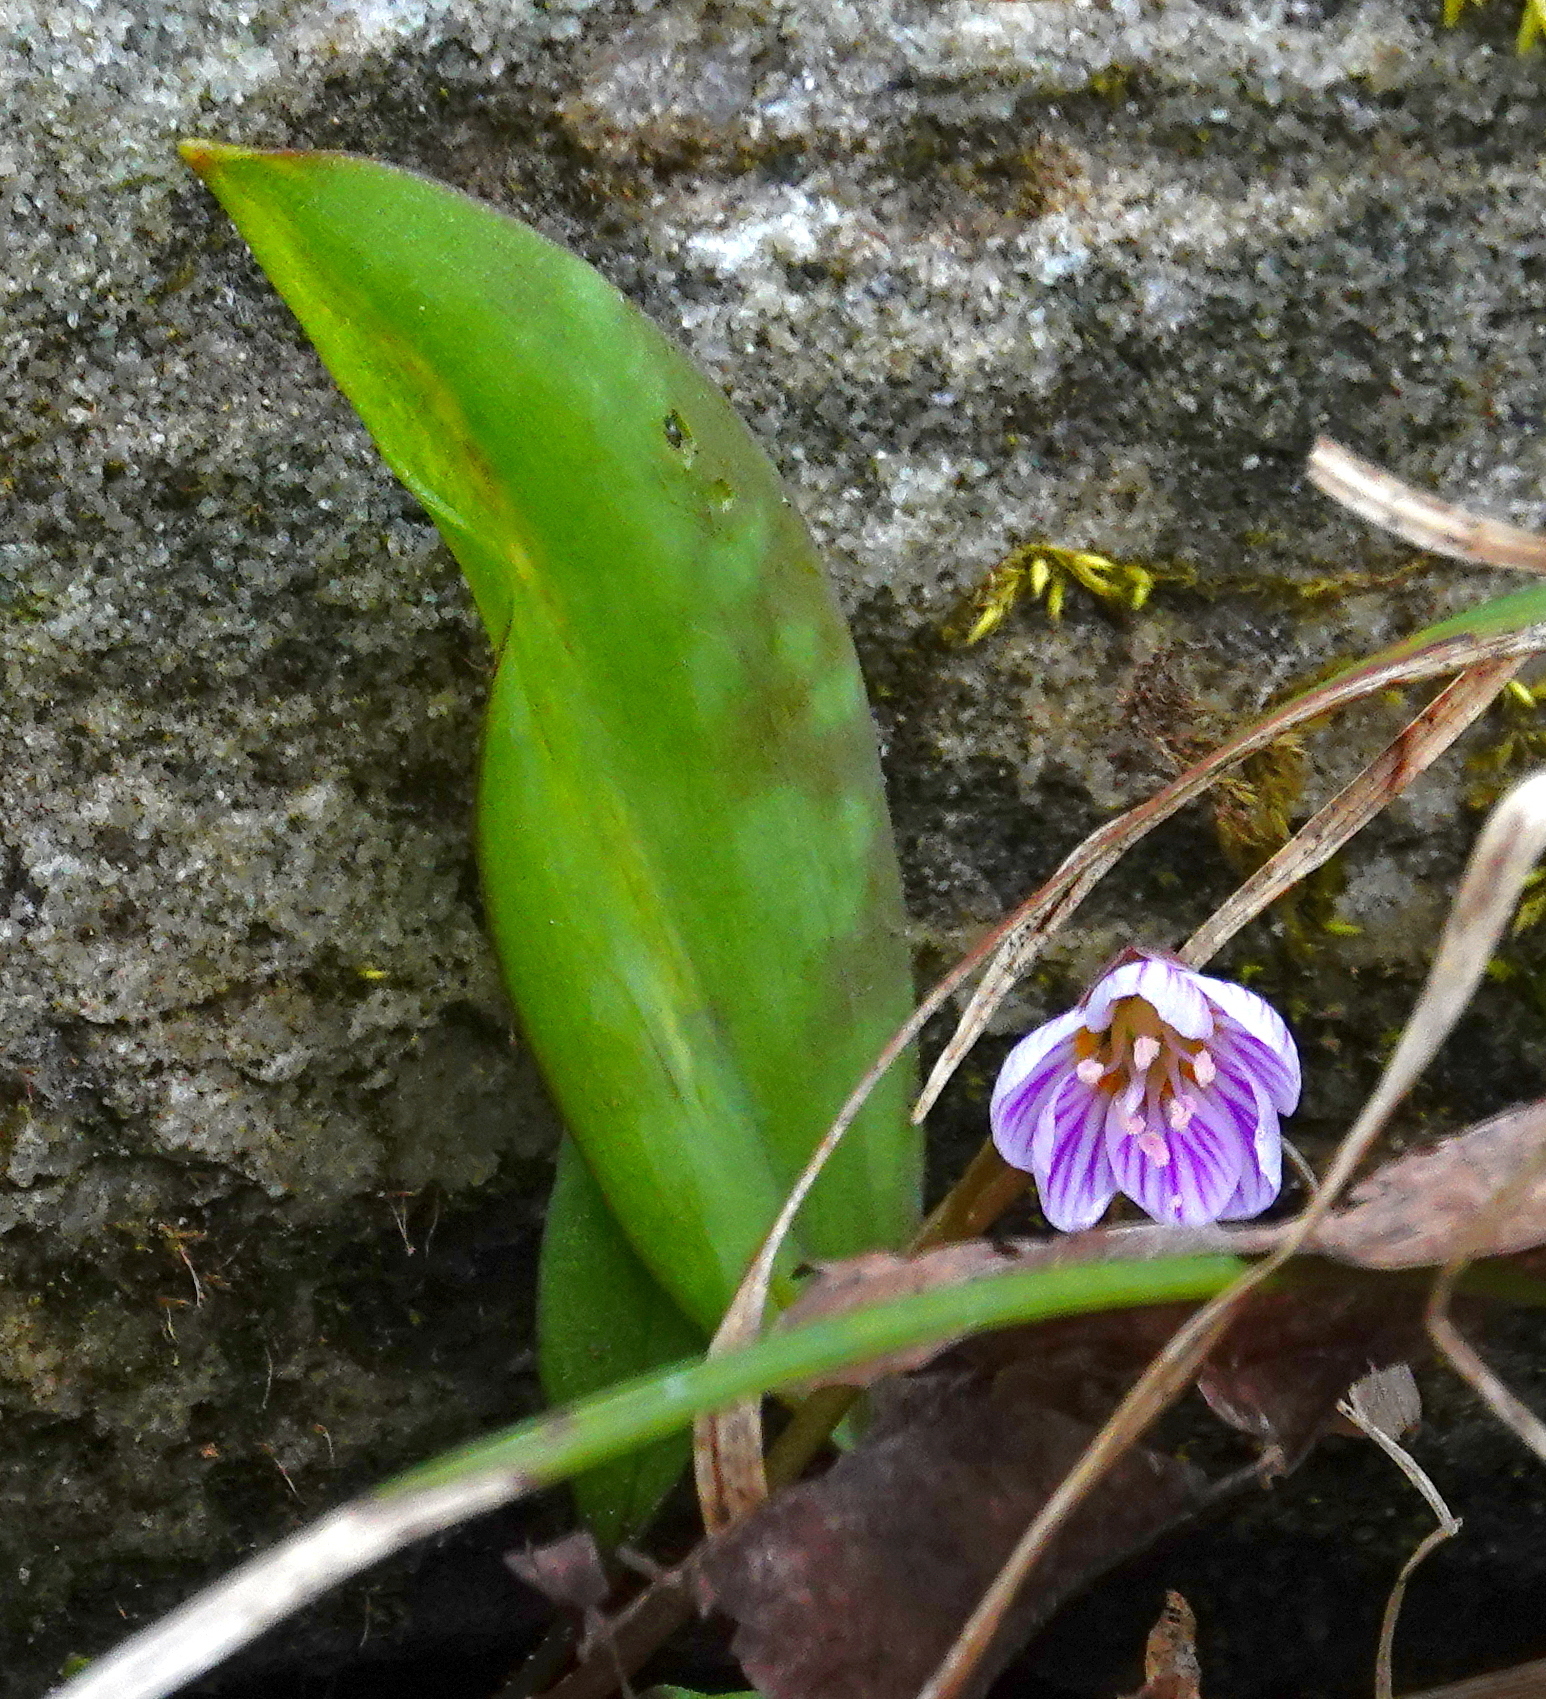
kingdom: Plantae
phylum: Tracheophyta
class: Magnoliopsida
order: Caryophyllales
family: Montiaceae
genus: Claytonia
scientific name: Claytonia caroliniana
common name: Carolina spring beauty
